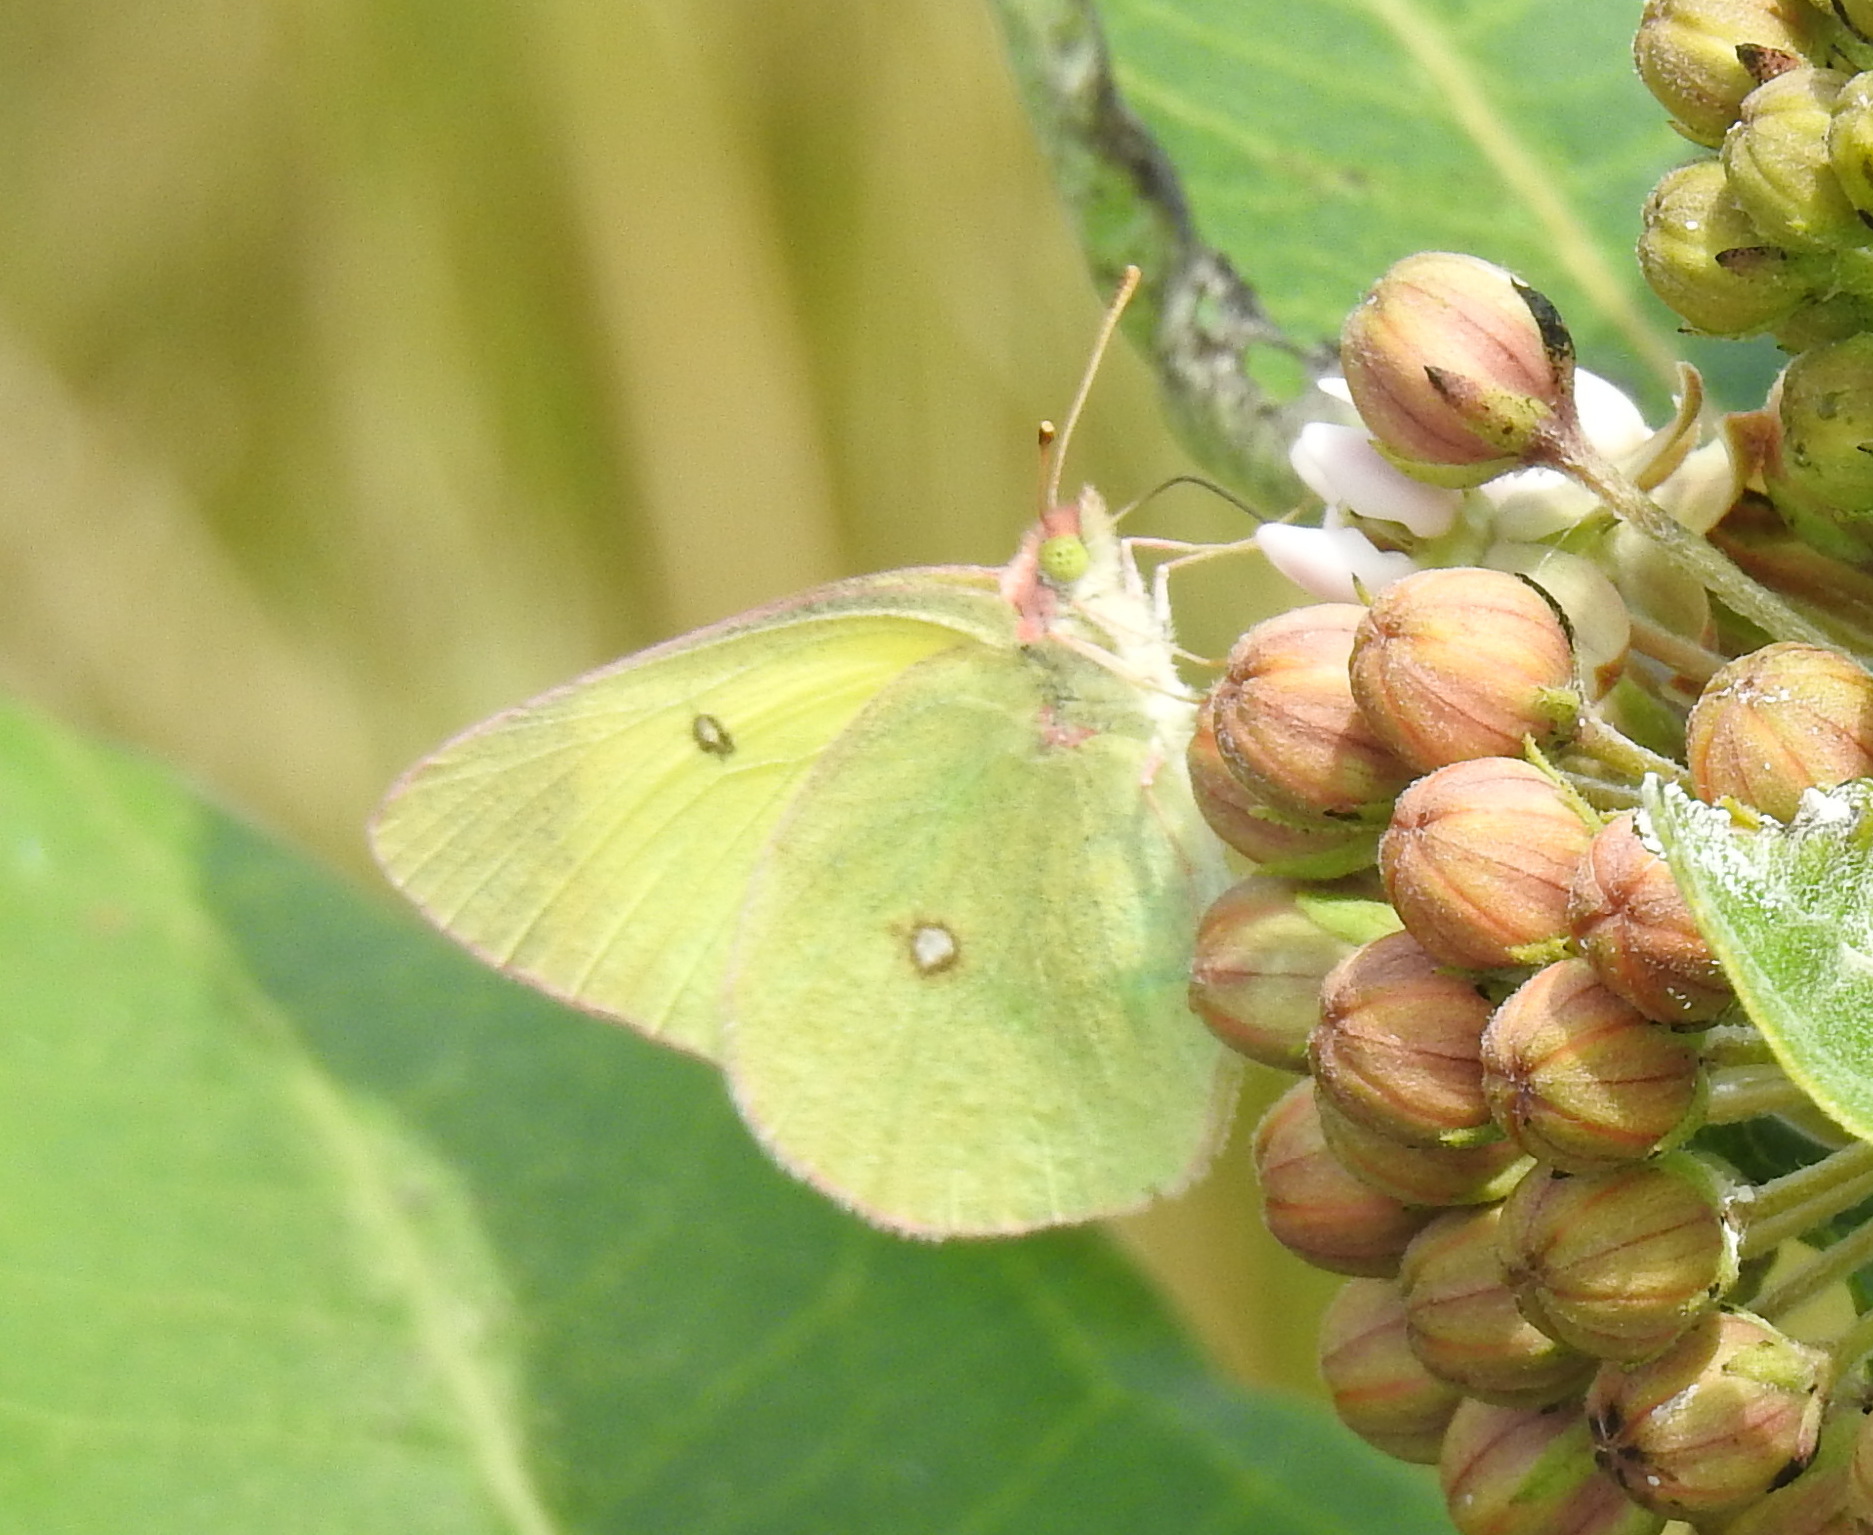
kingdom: Animalia
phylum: Arthropoda
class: Insecta
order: Lepidoptera
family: Pieridae
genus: Colias
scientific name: Colias interior
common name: Pink-edged sulphur
